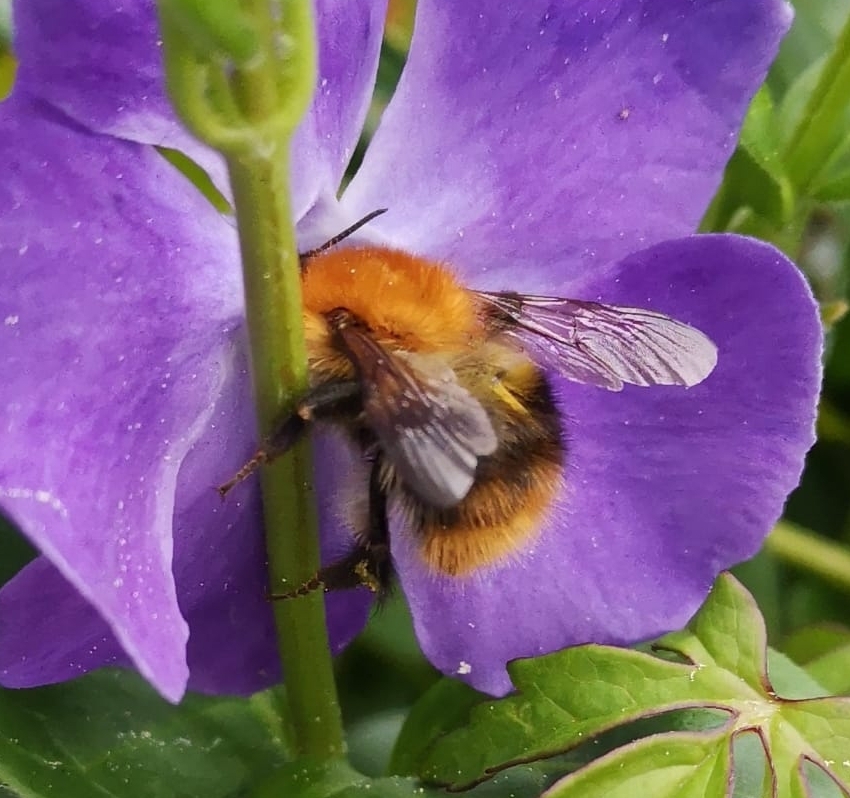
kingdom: Animalia
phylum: Arthropoda
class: Insecta
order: Hymenoptera
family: Apidae
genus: Bombus
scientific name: Bombus pascuorum
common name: Common carder bee
